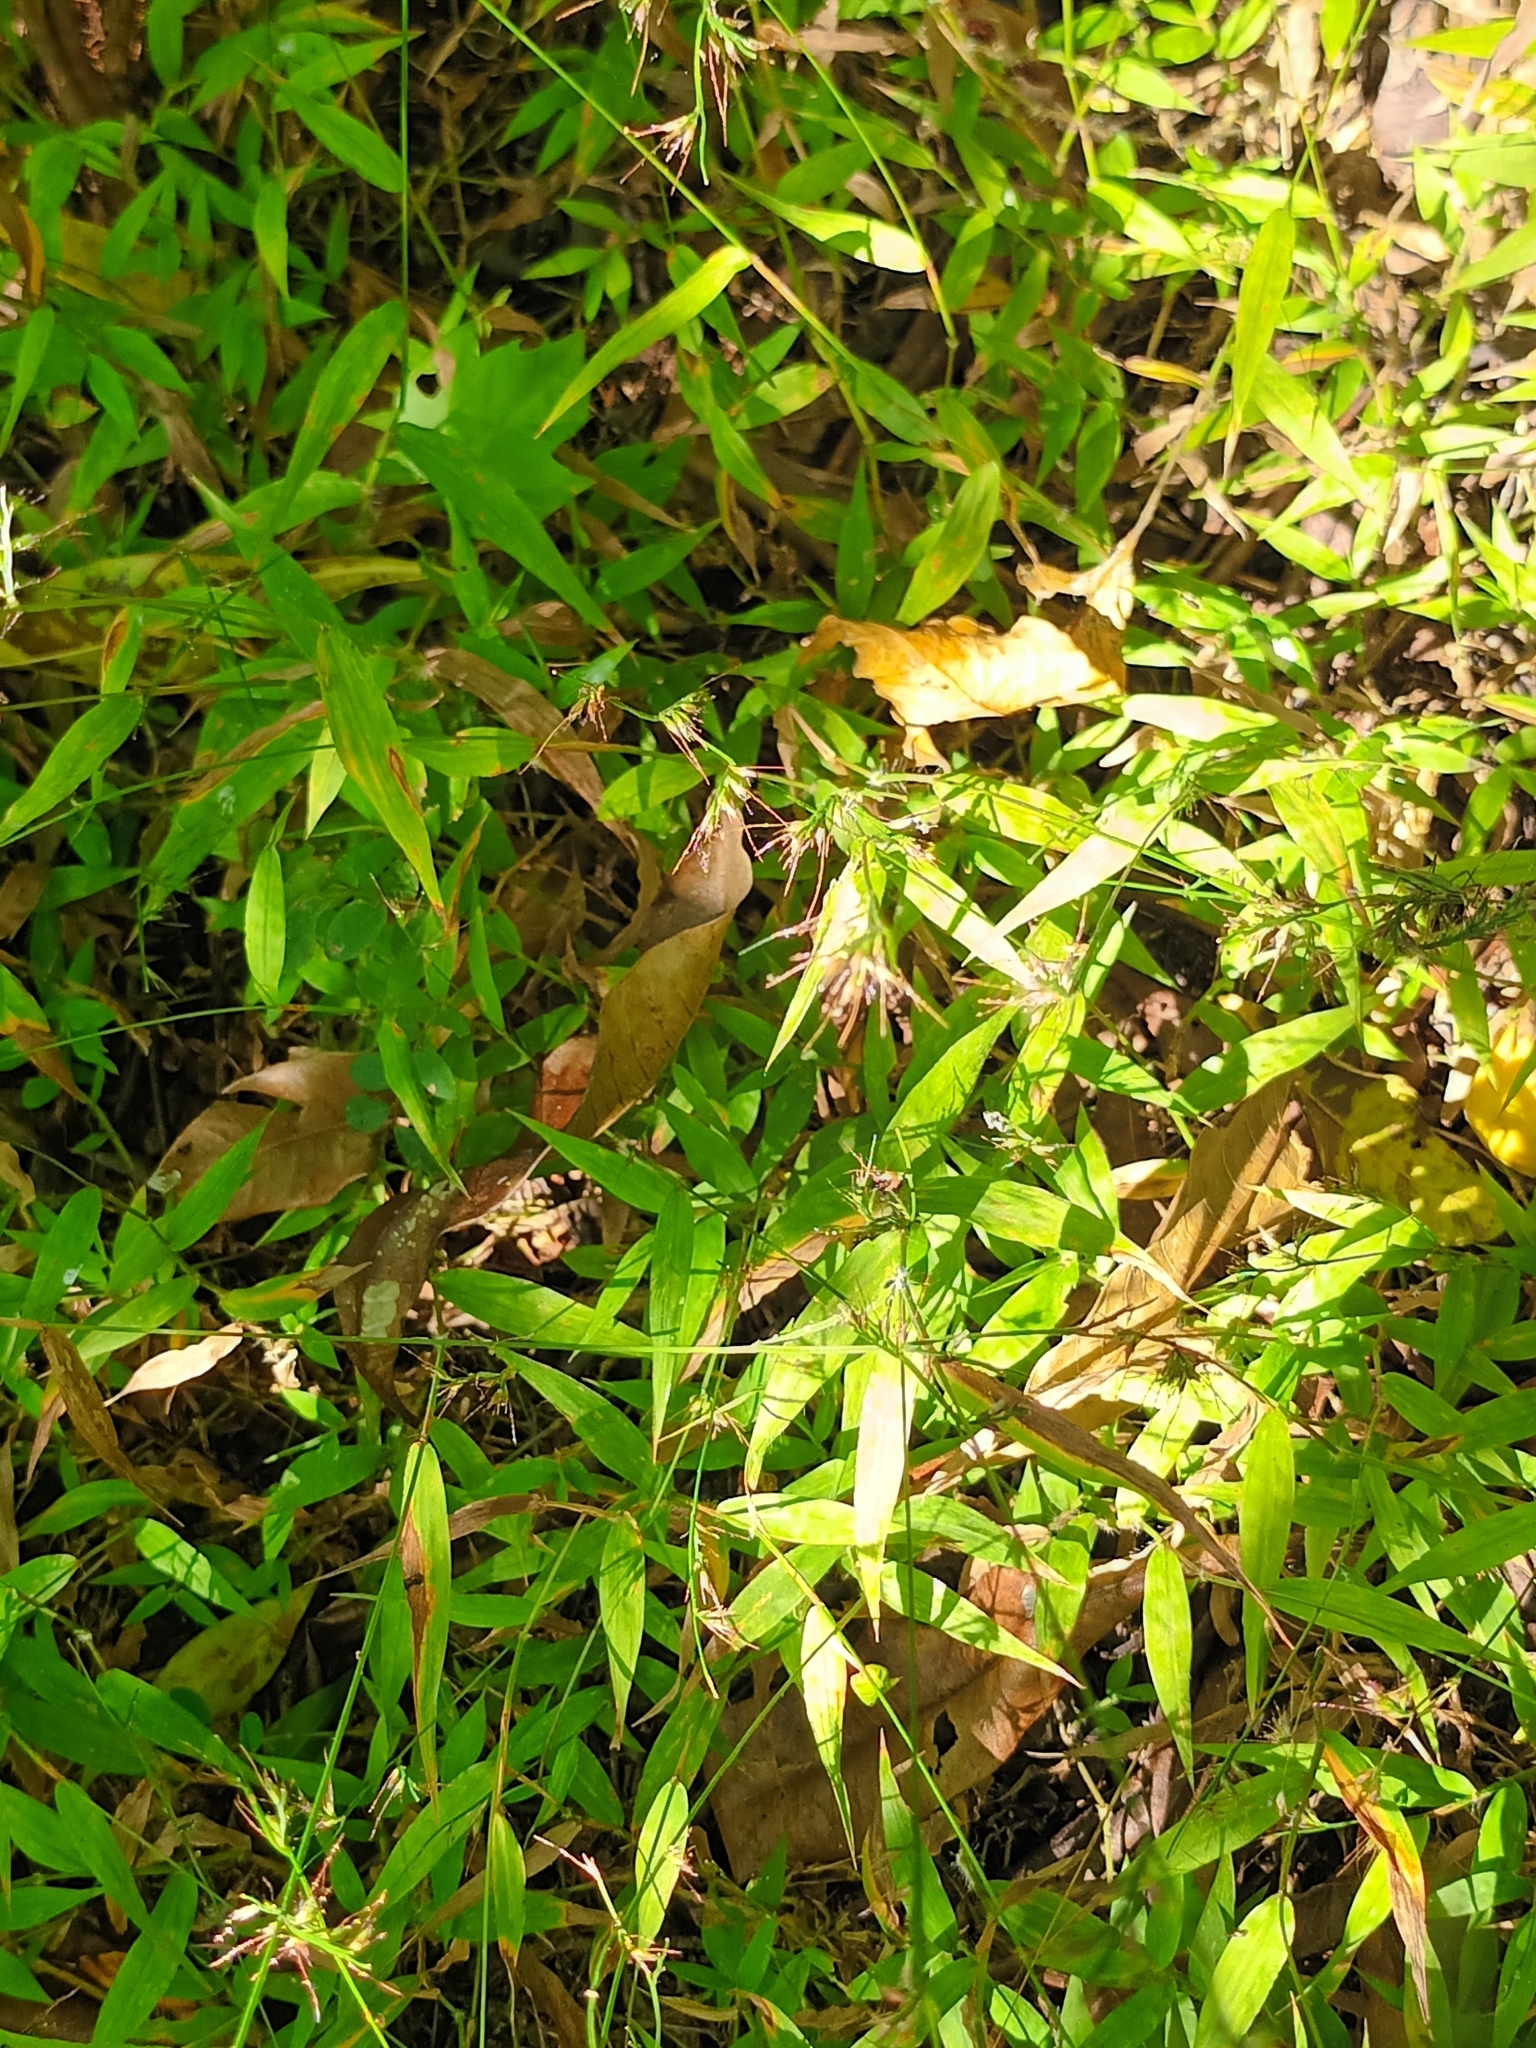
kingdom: Plantae
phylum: Tracheophyta
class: Liliopsida
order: Poales
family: Poaceae
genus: Oplismenus
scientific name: Oplismenus hirtellus
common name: Basketgrass
